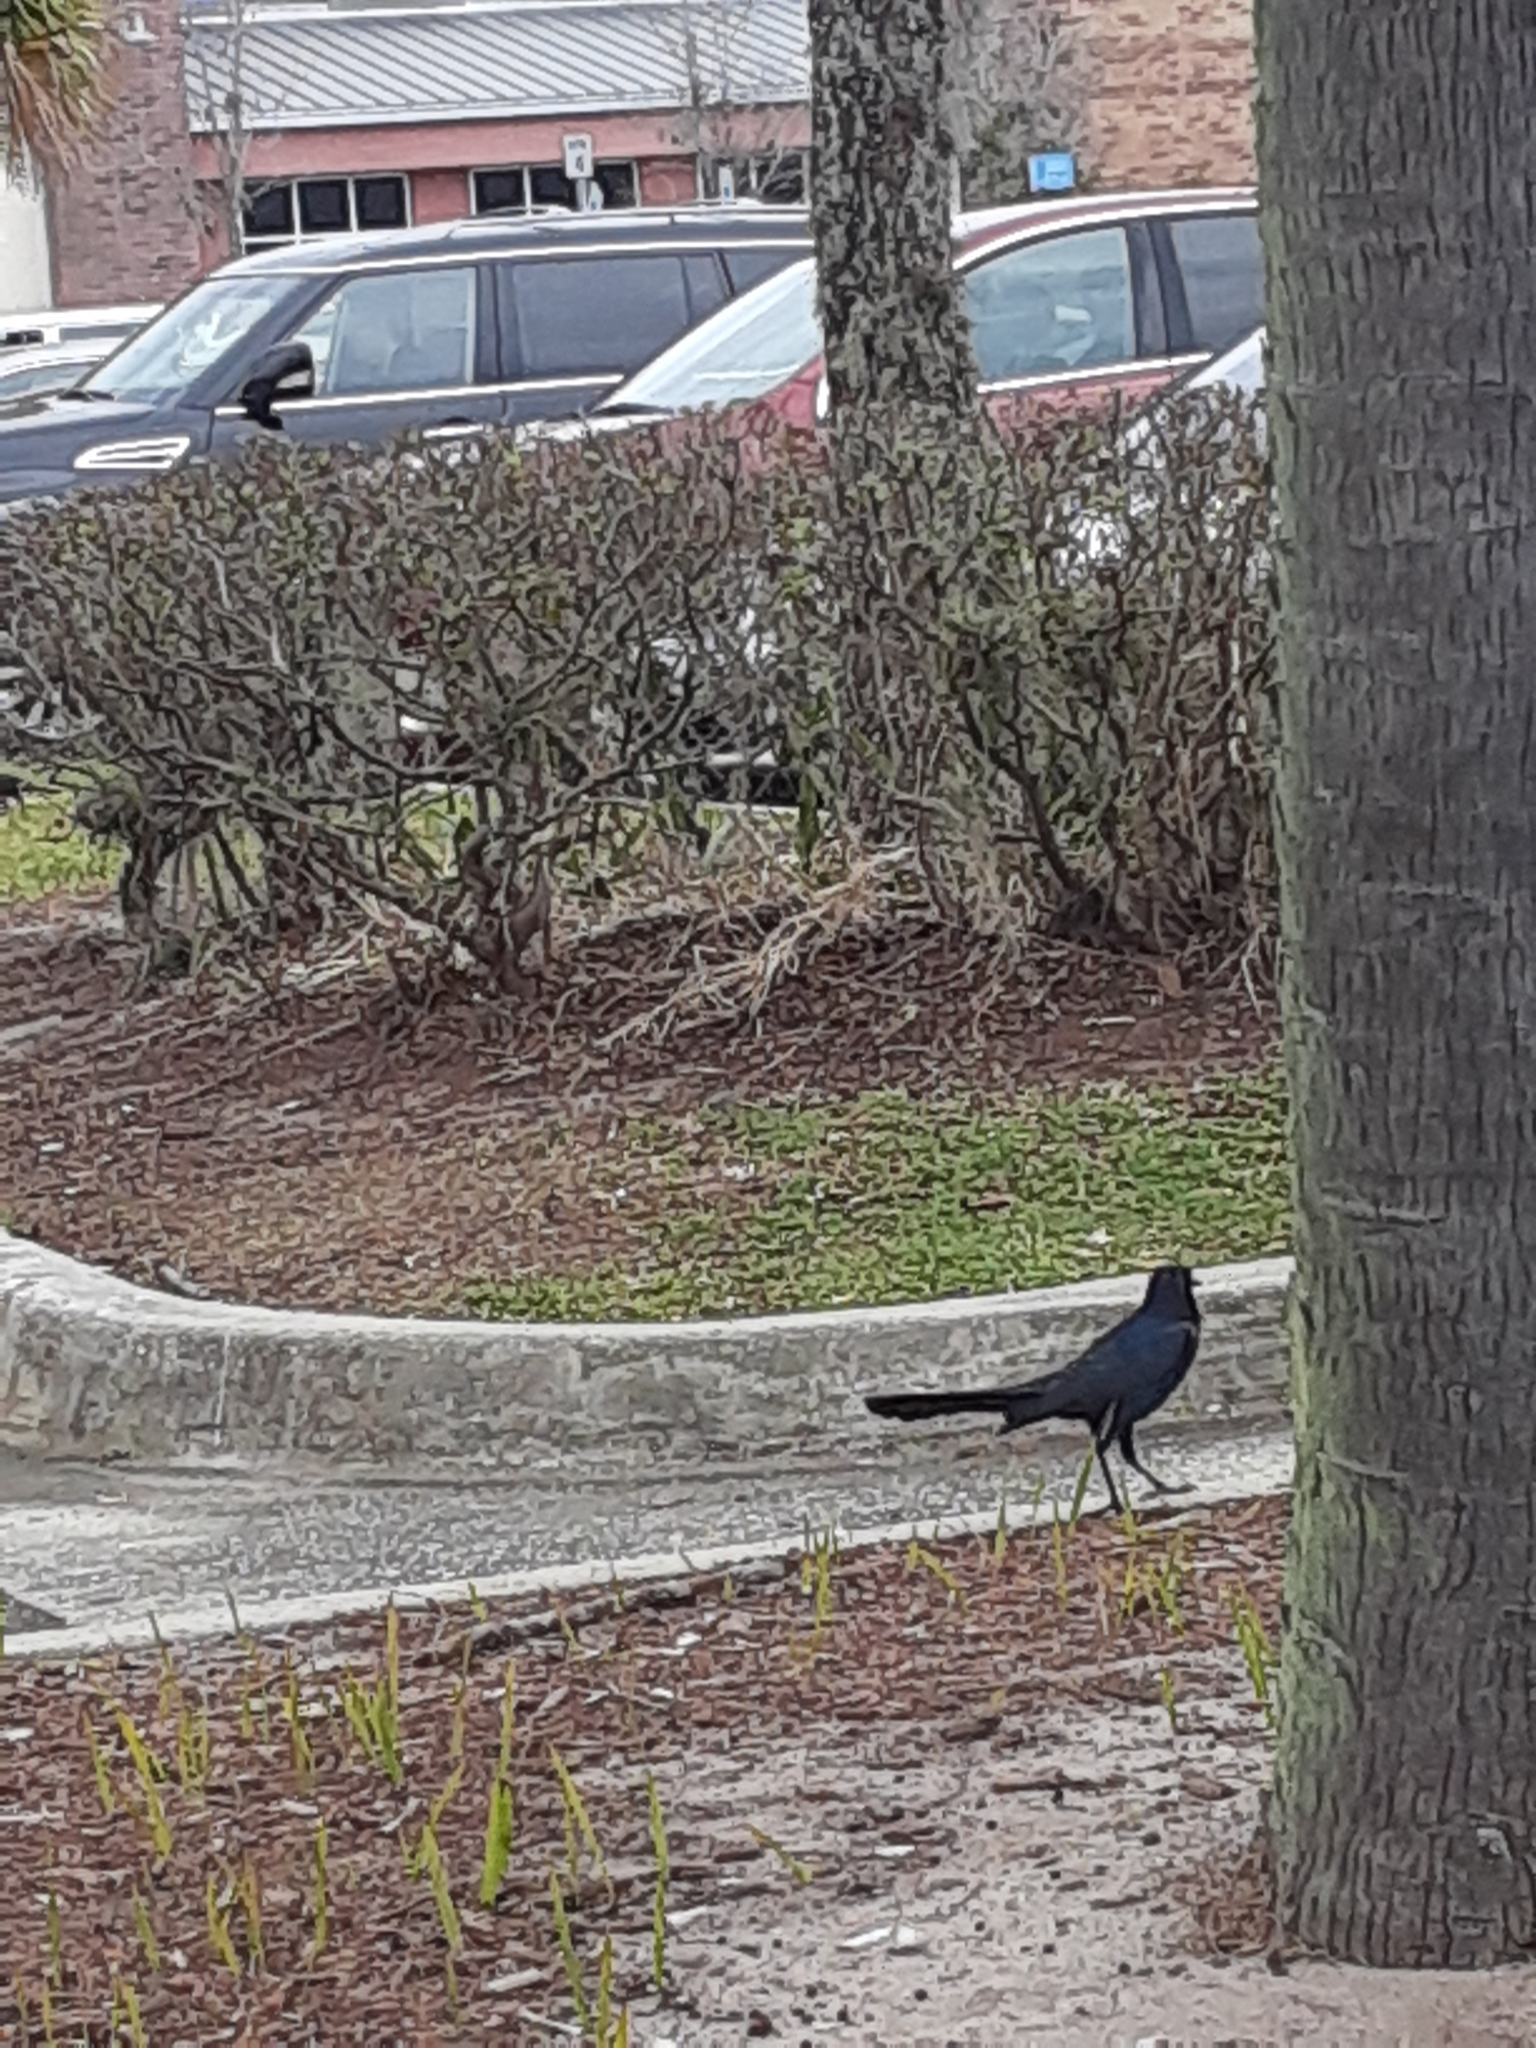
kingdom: Animalia
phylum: Chordata
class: Aves
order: Passeriformes
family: Icteridae
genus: Quiscalus
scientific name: Quiscalus major
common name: Boat-tailed grackle
